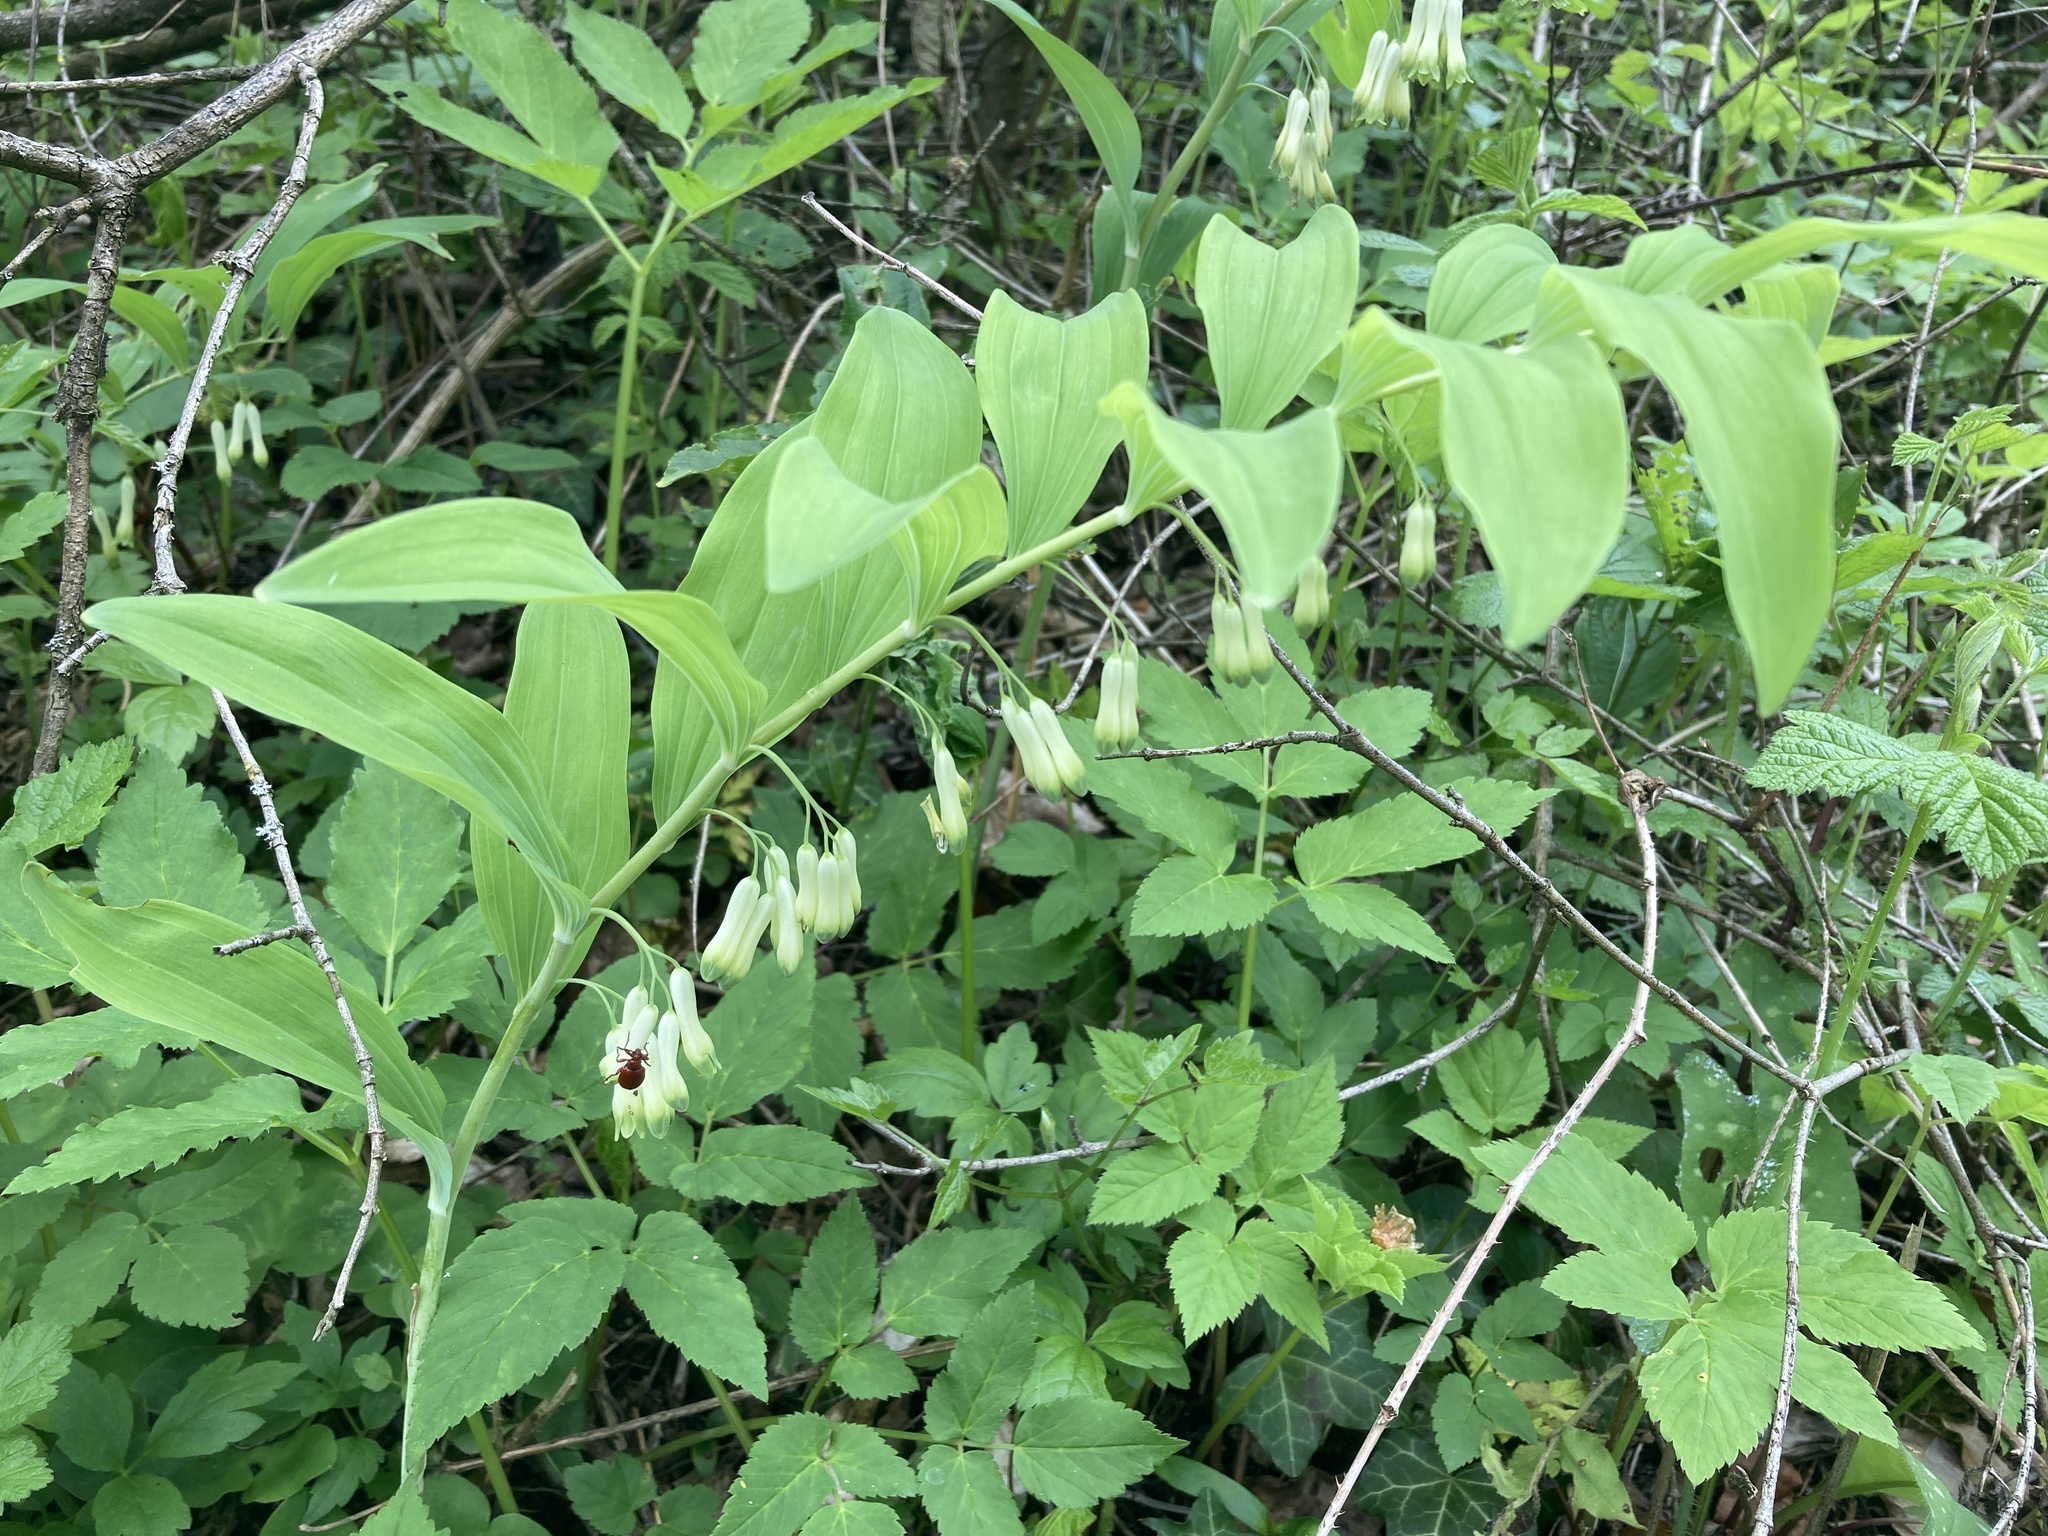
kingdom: Plantae
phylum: Tracheophyta
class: Liliopsida
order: Asparagales
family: Asparagaceae
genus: Polygonatum
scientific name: Polygonatum multiflorum
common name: Solomon's-seal
